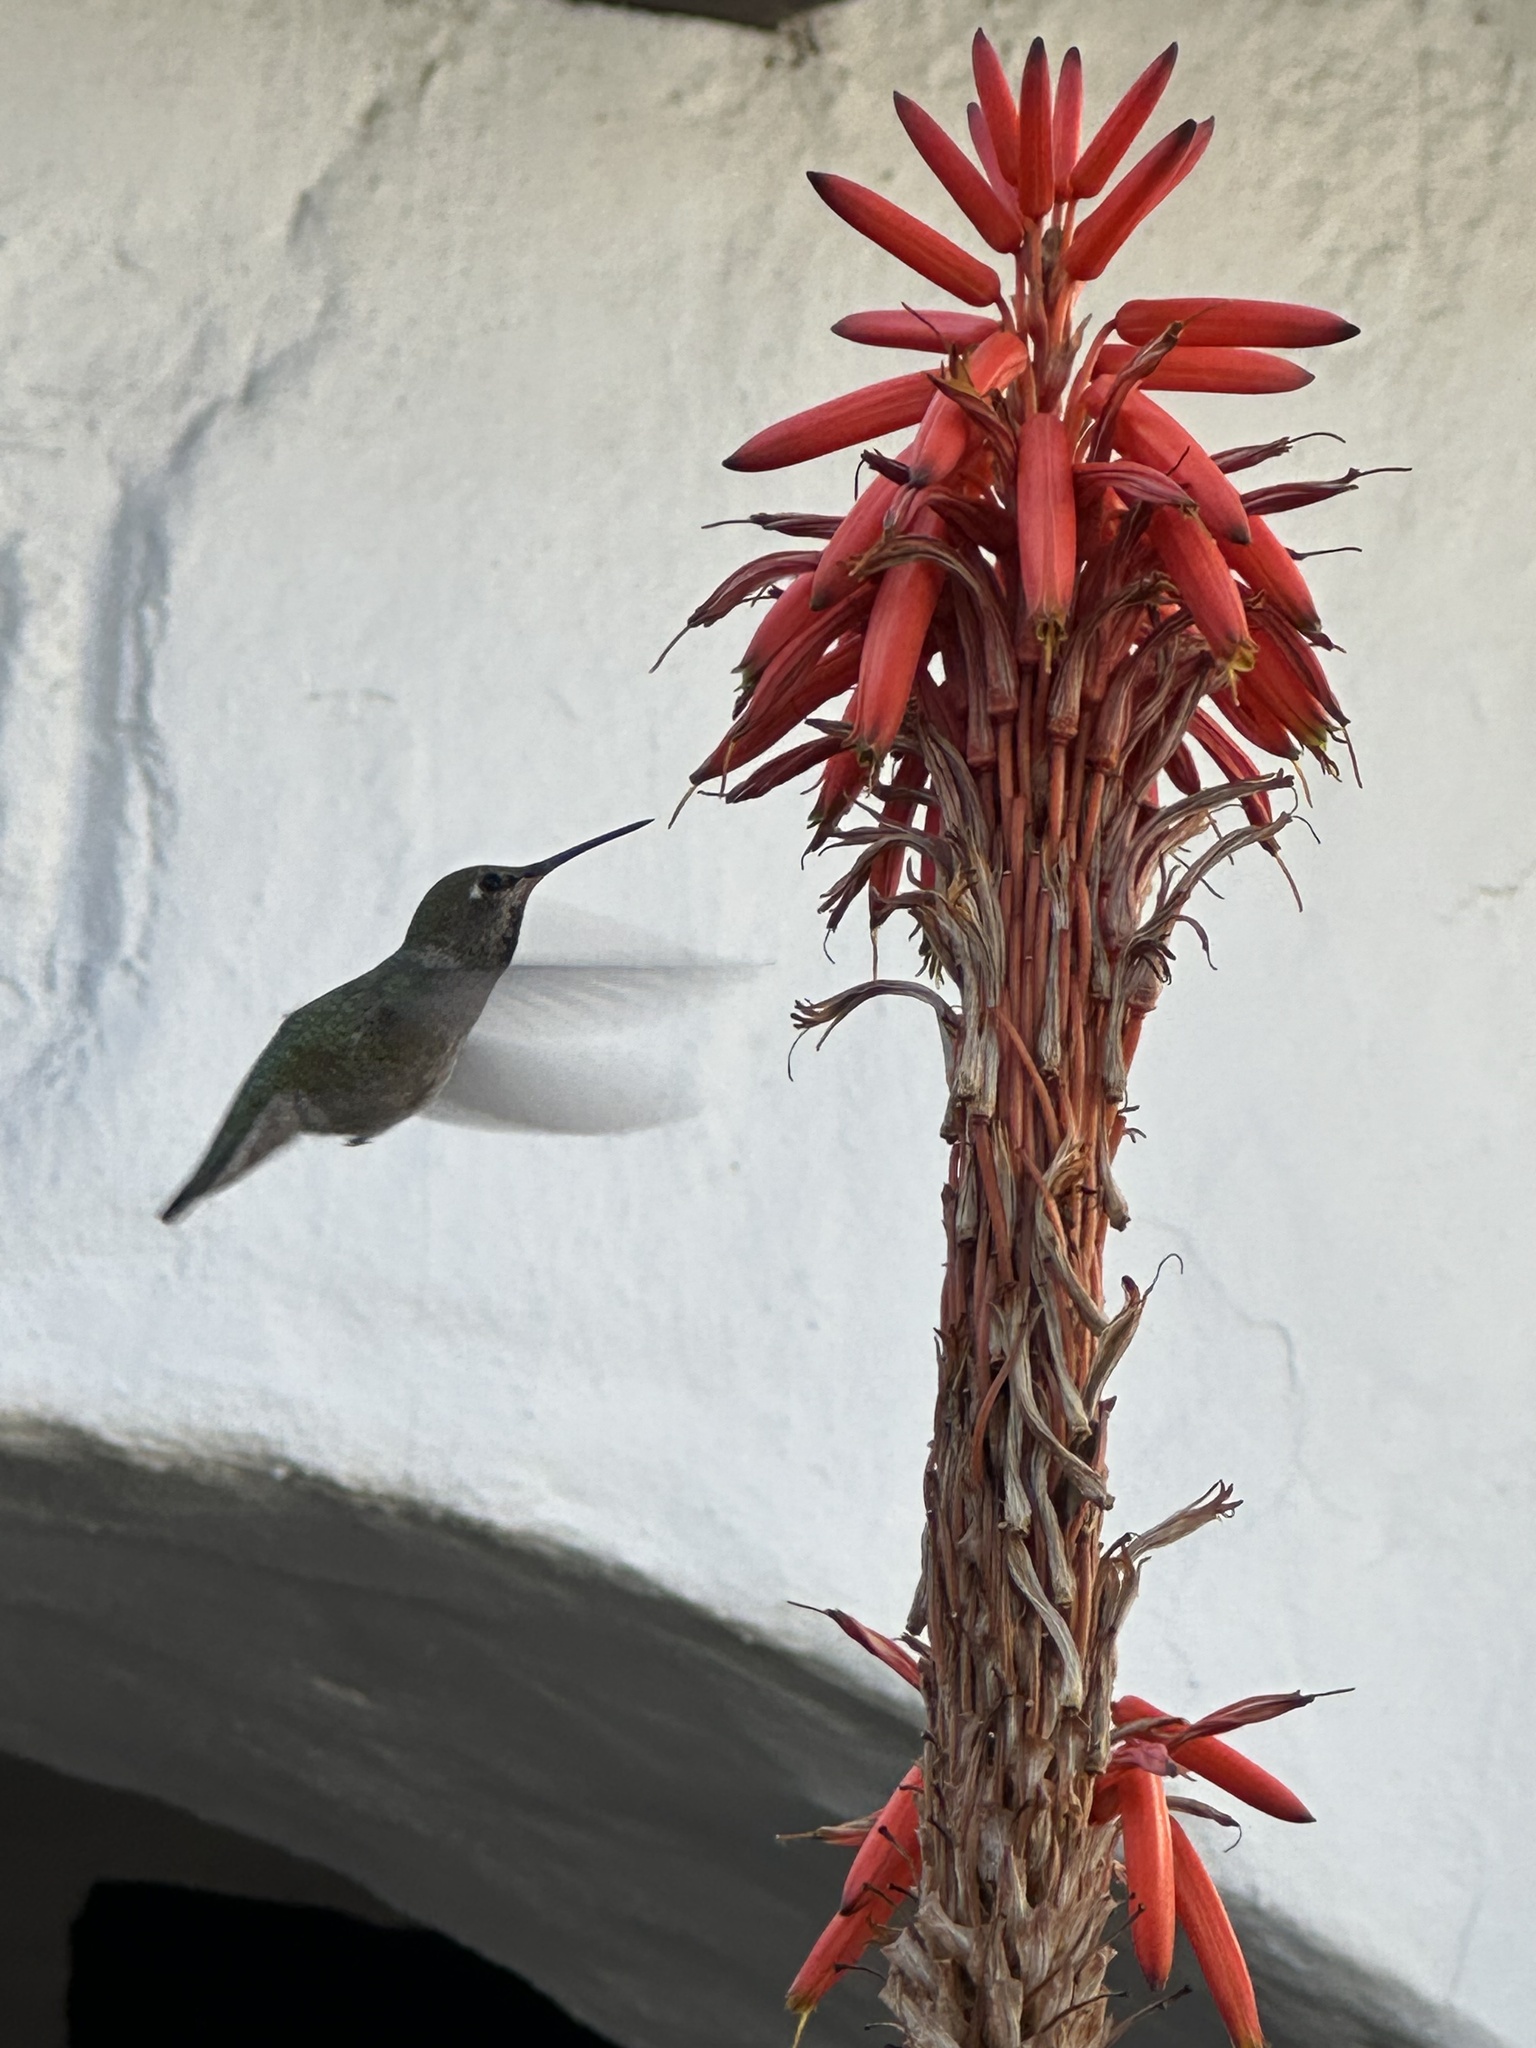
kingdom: Animalia
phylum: Chordata
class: Aves
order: Apodiformes
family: Trochilidae
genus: Calypte
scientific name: Calypte anna
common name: Anna's hummingbird
